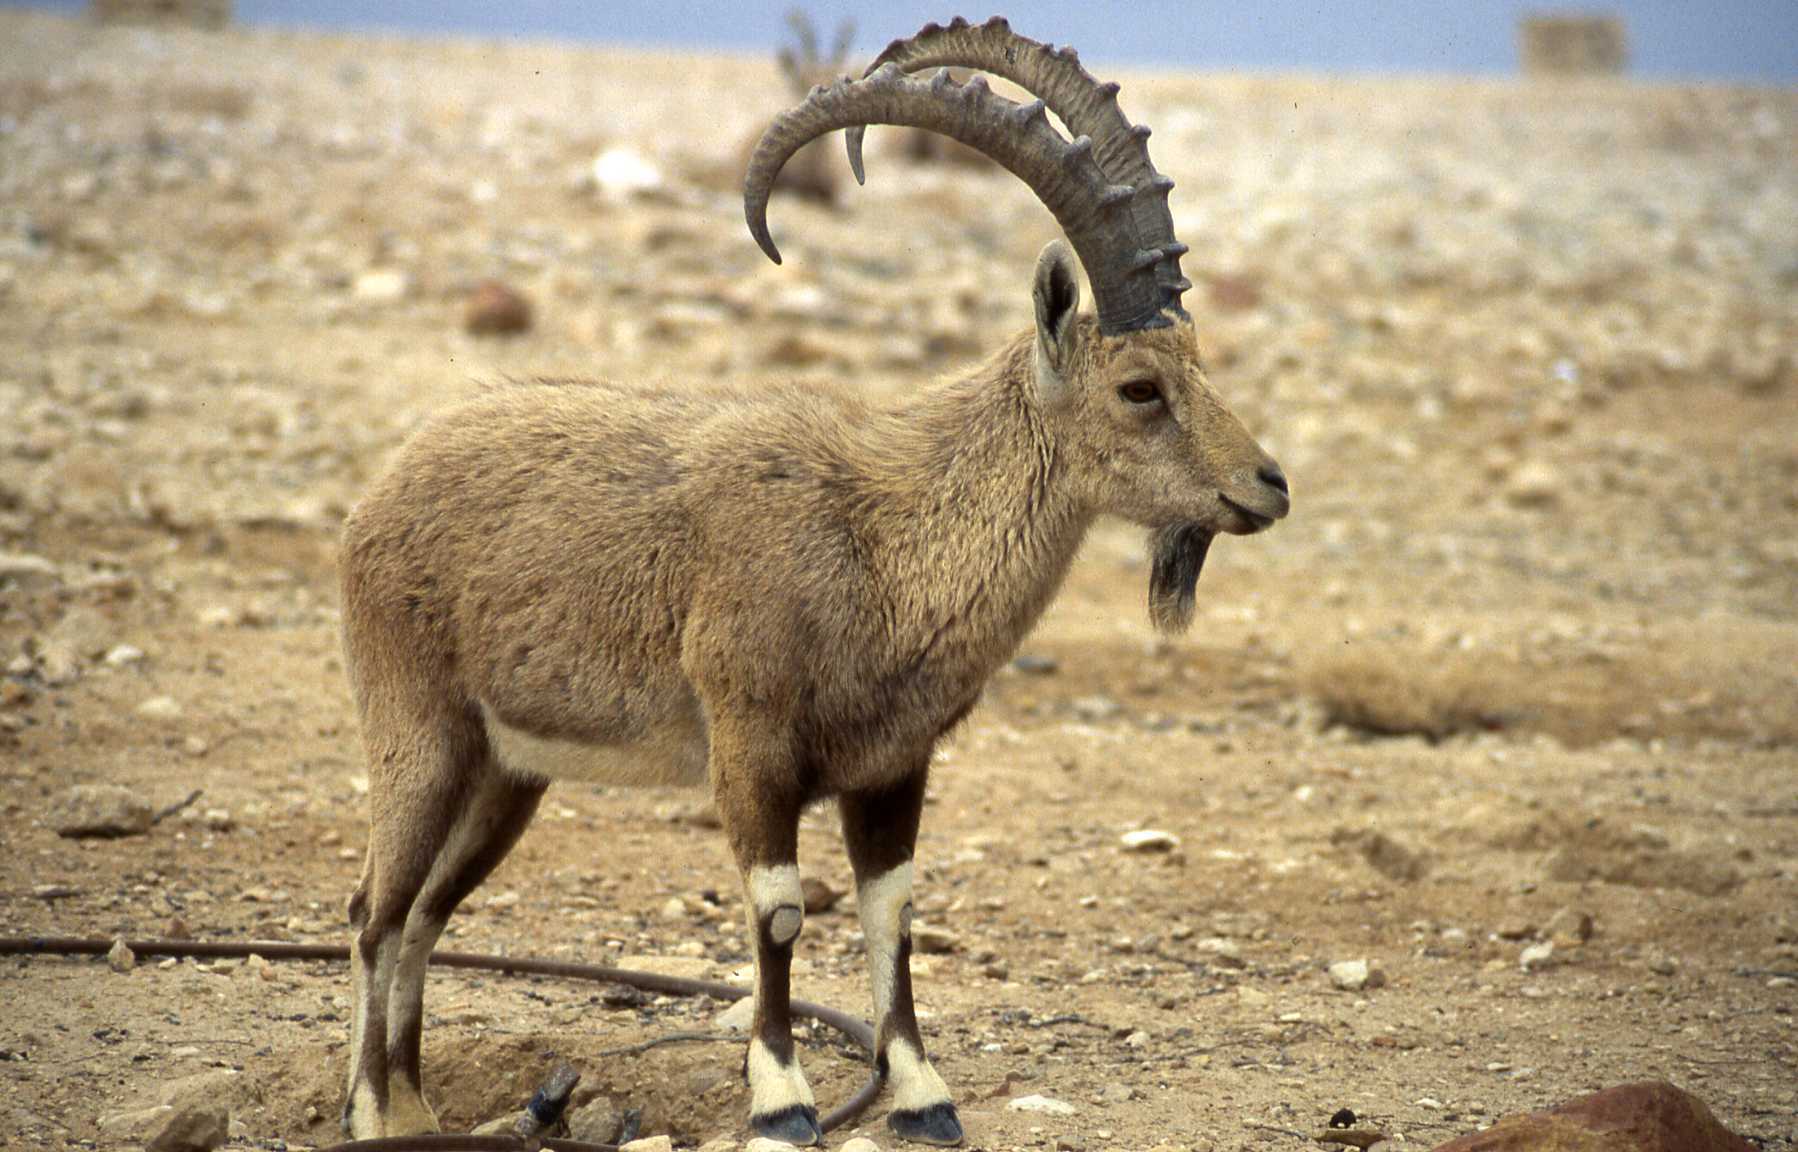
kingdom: Animalia
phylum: Chordata
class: Mammalia
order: Artiodactyla
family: Bovidae
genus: Capra
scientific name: Capra nubiana
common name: Nubian ibex
